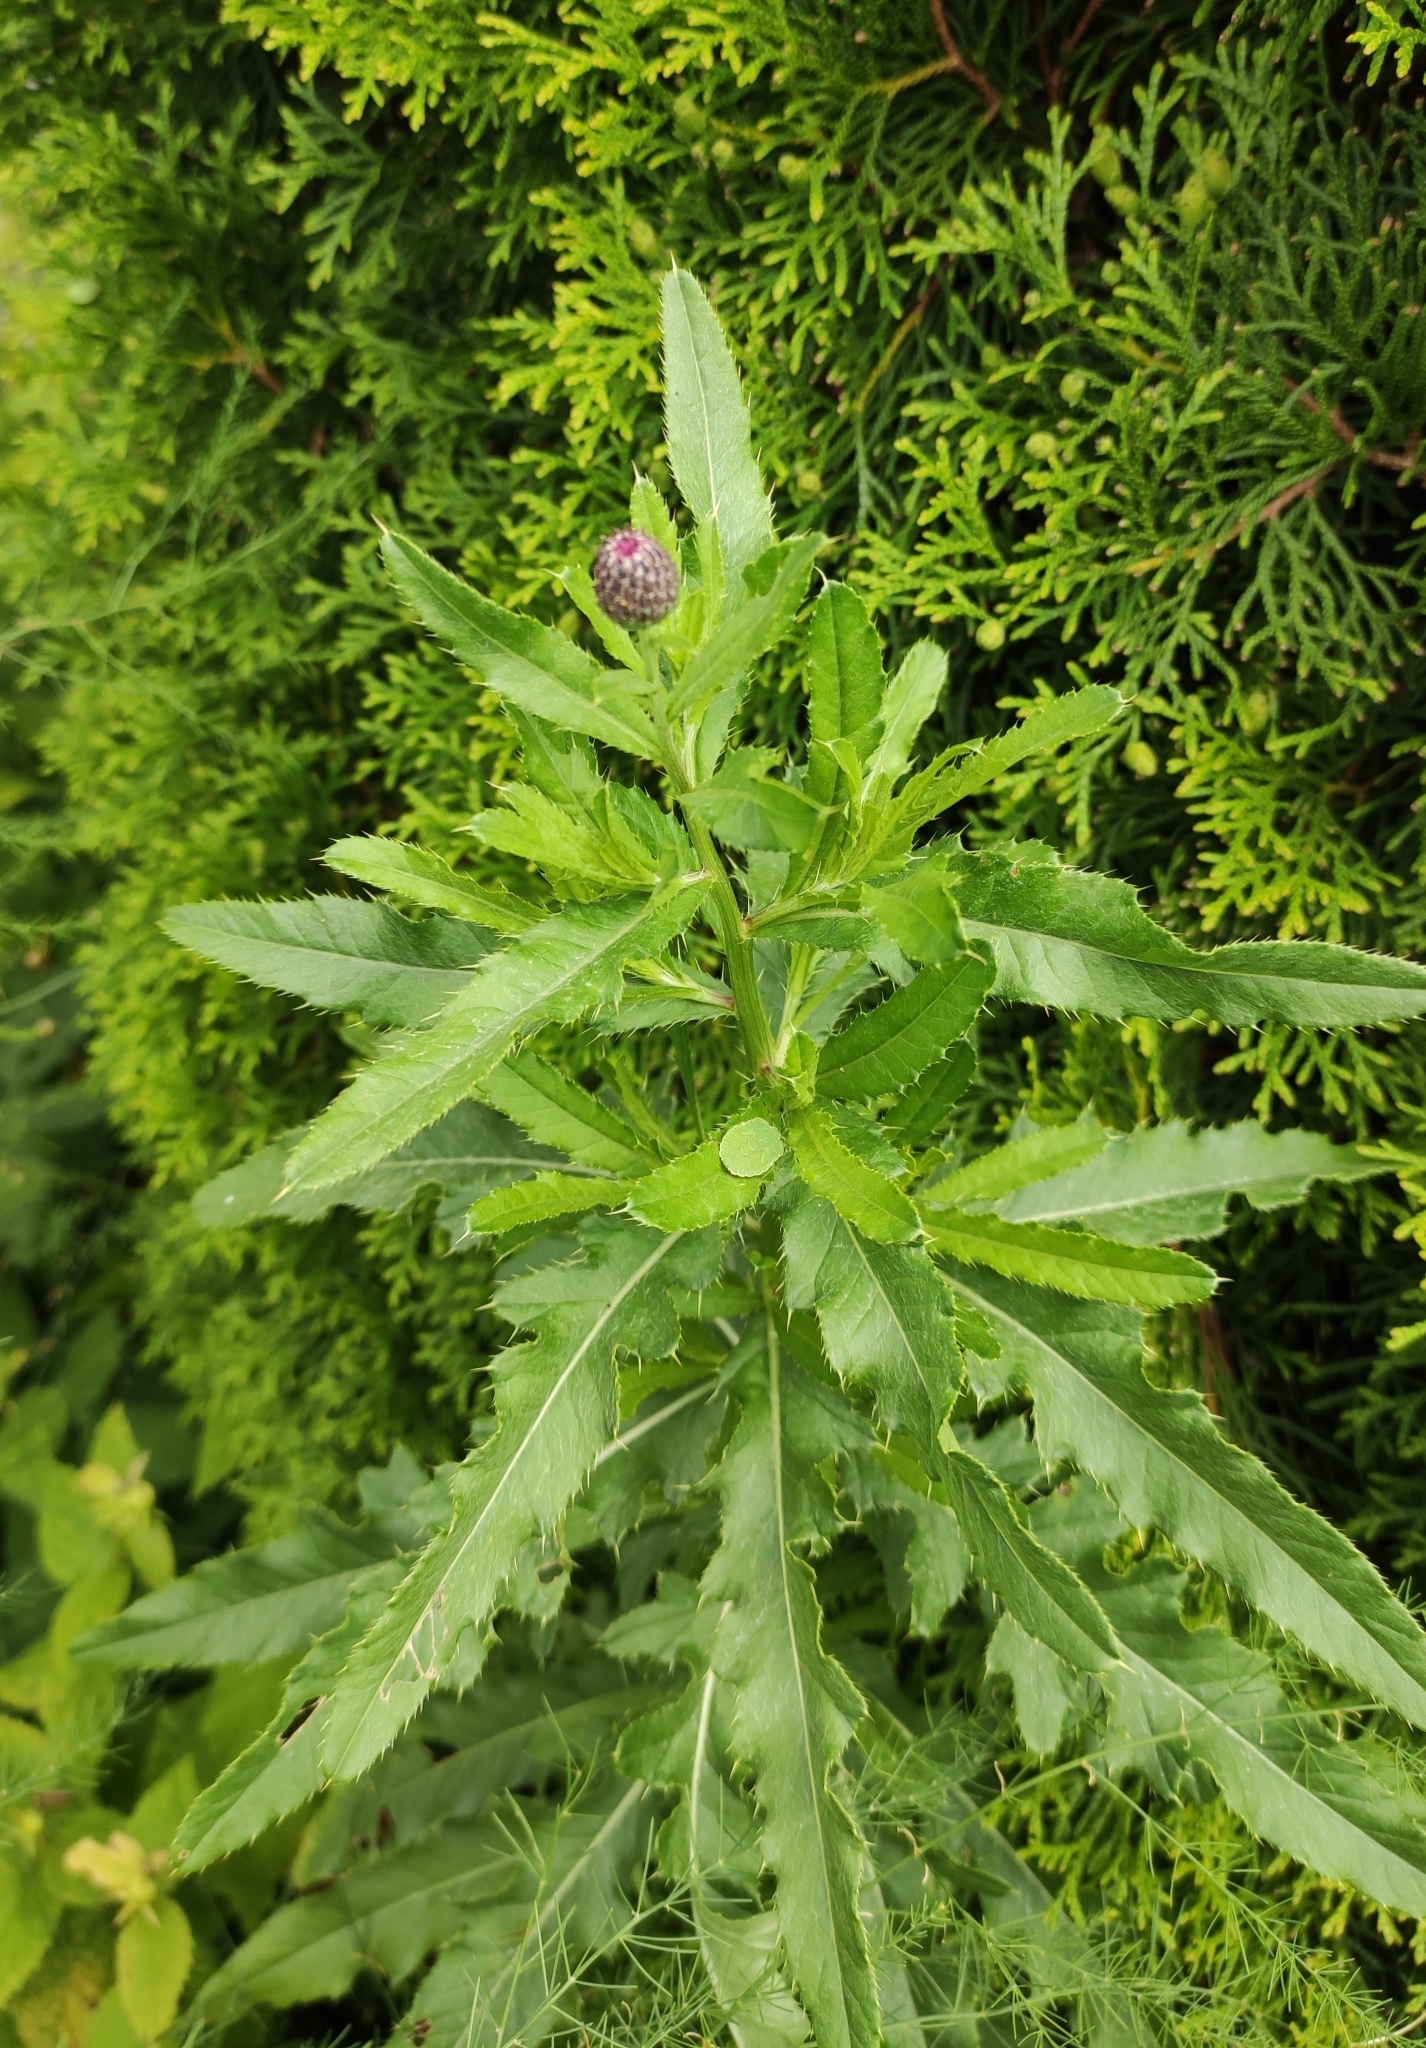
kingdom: Plantae
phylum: Tracheophyta
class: Magnoliopsida
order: Asterales
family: Asteraceae
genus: Cirsium
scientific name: Cirsium arvense
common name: Creeping thistle
